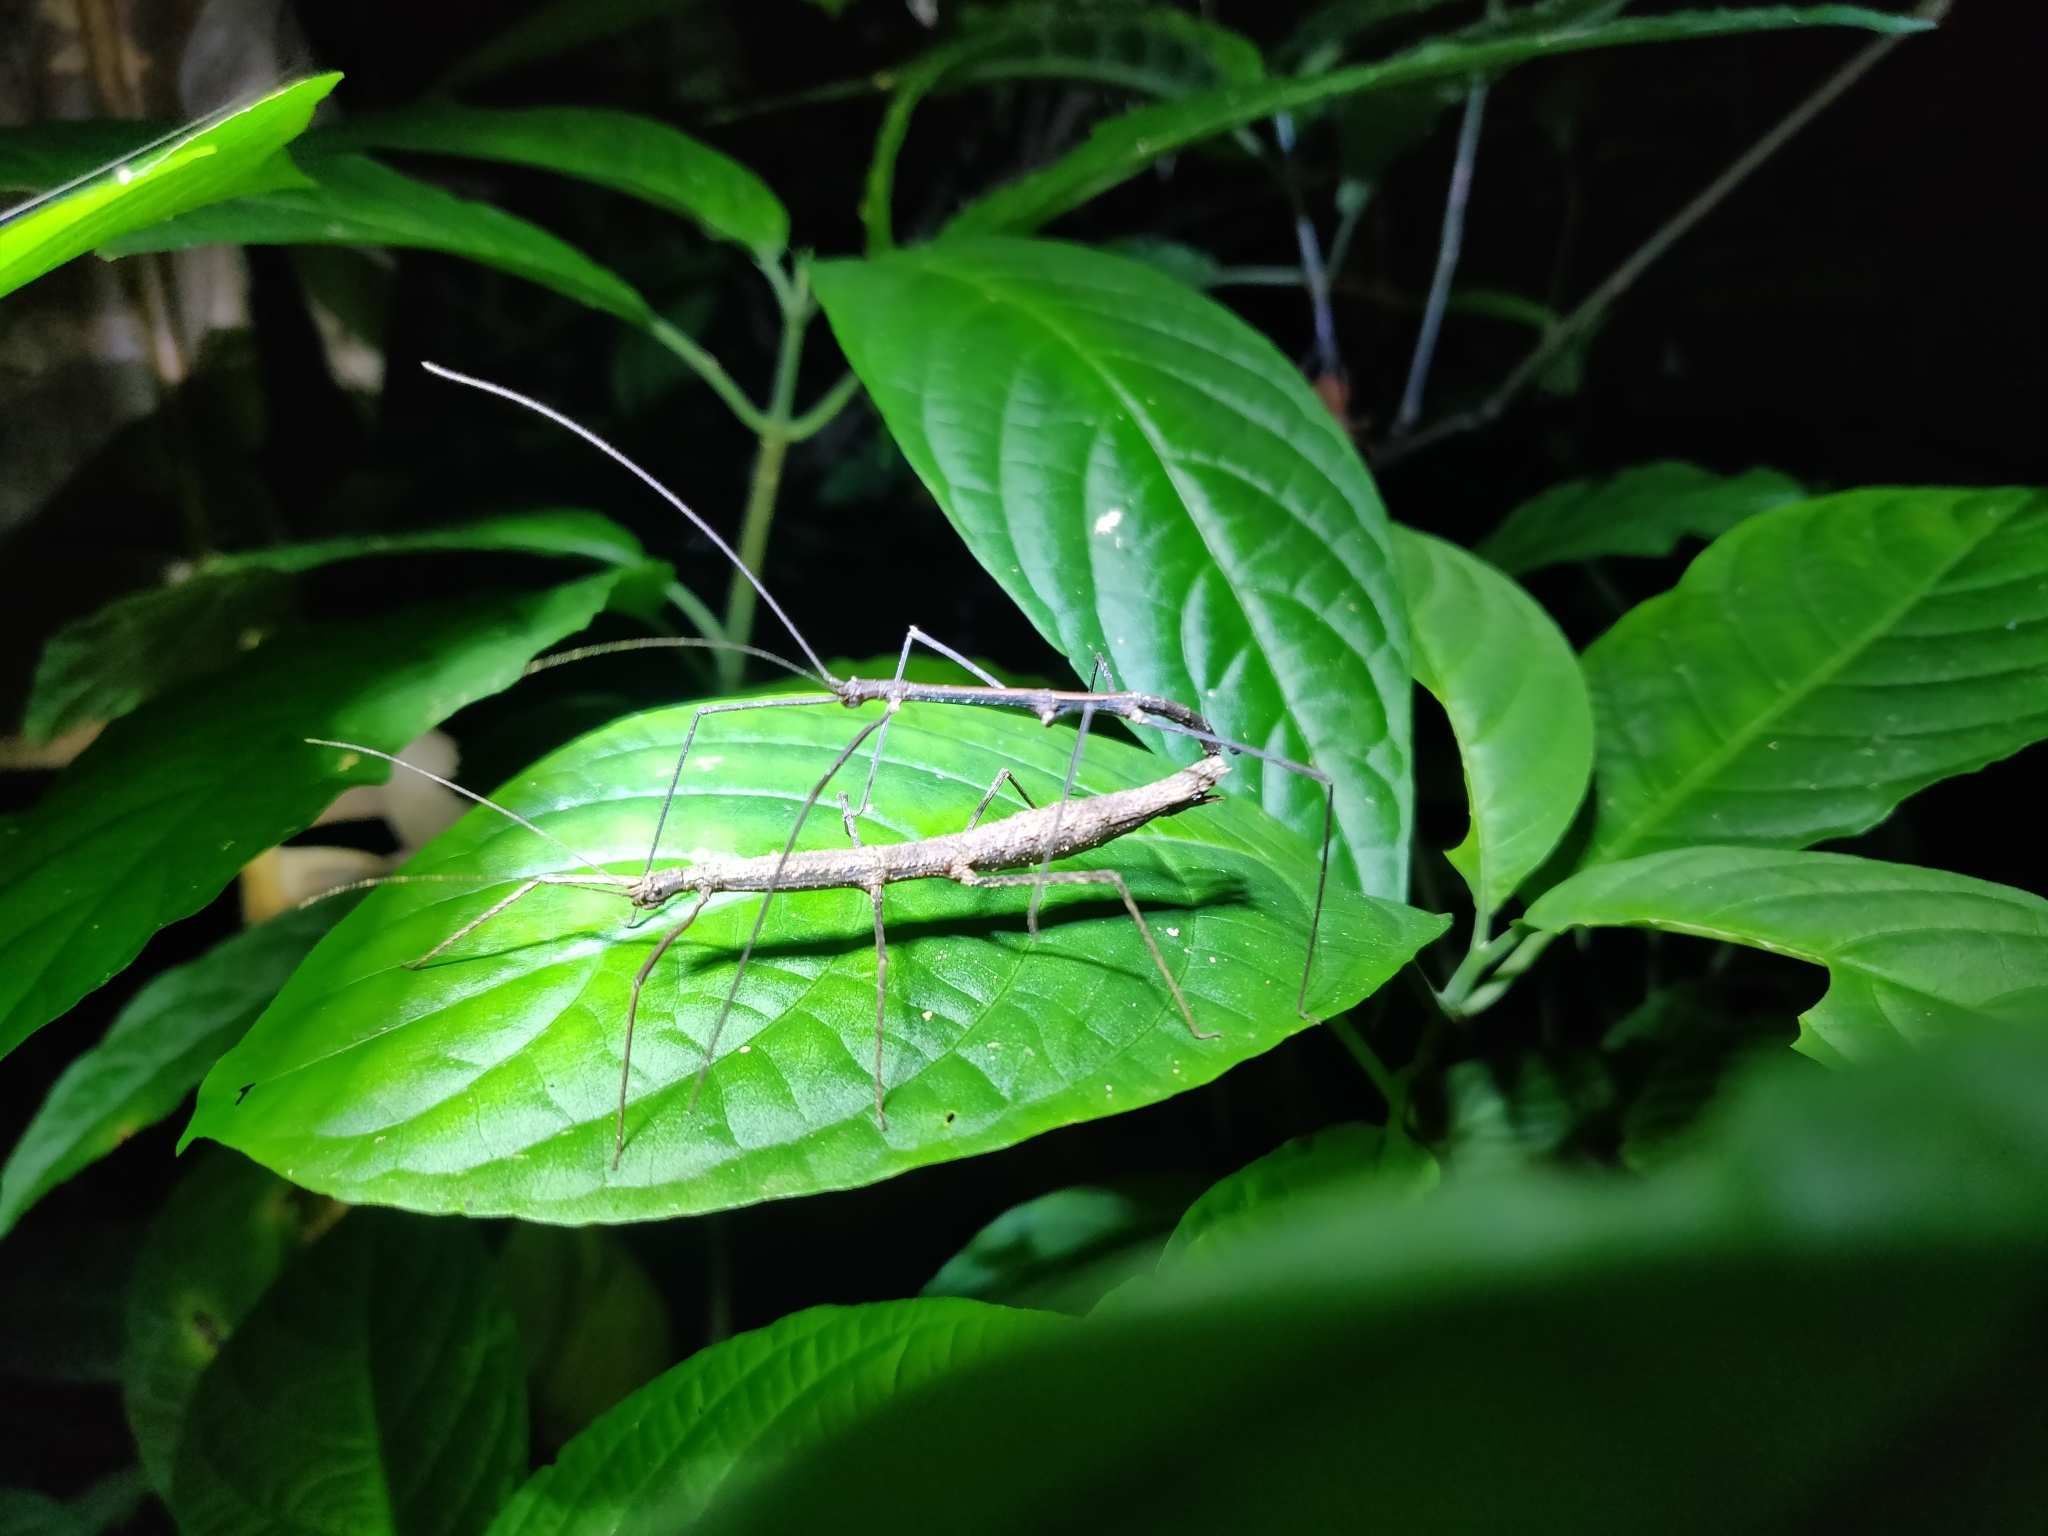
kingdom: Animalia
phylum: Arthropoda
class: Insecta
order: Phasmida
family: Diapheromeridae
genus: Ocnophiloidea
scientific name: Ocnophiloidea regularis
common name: Trinidad twig
